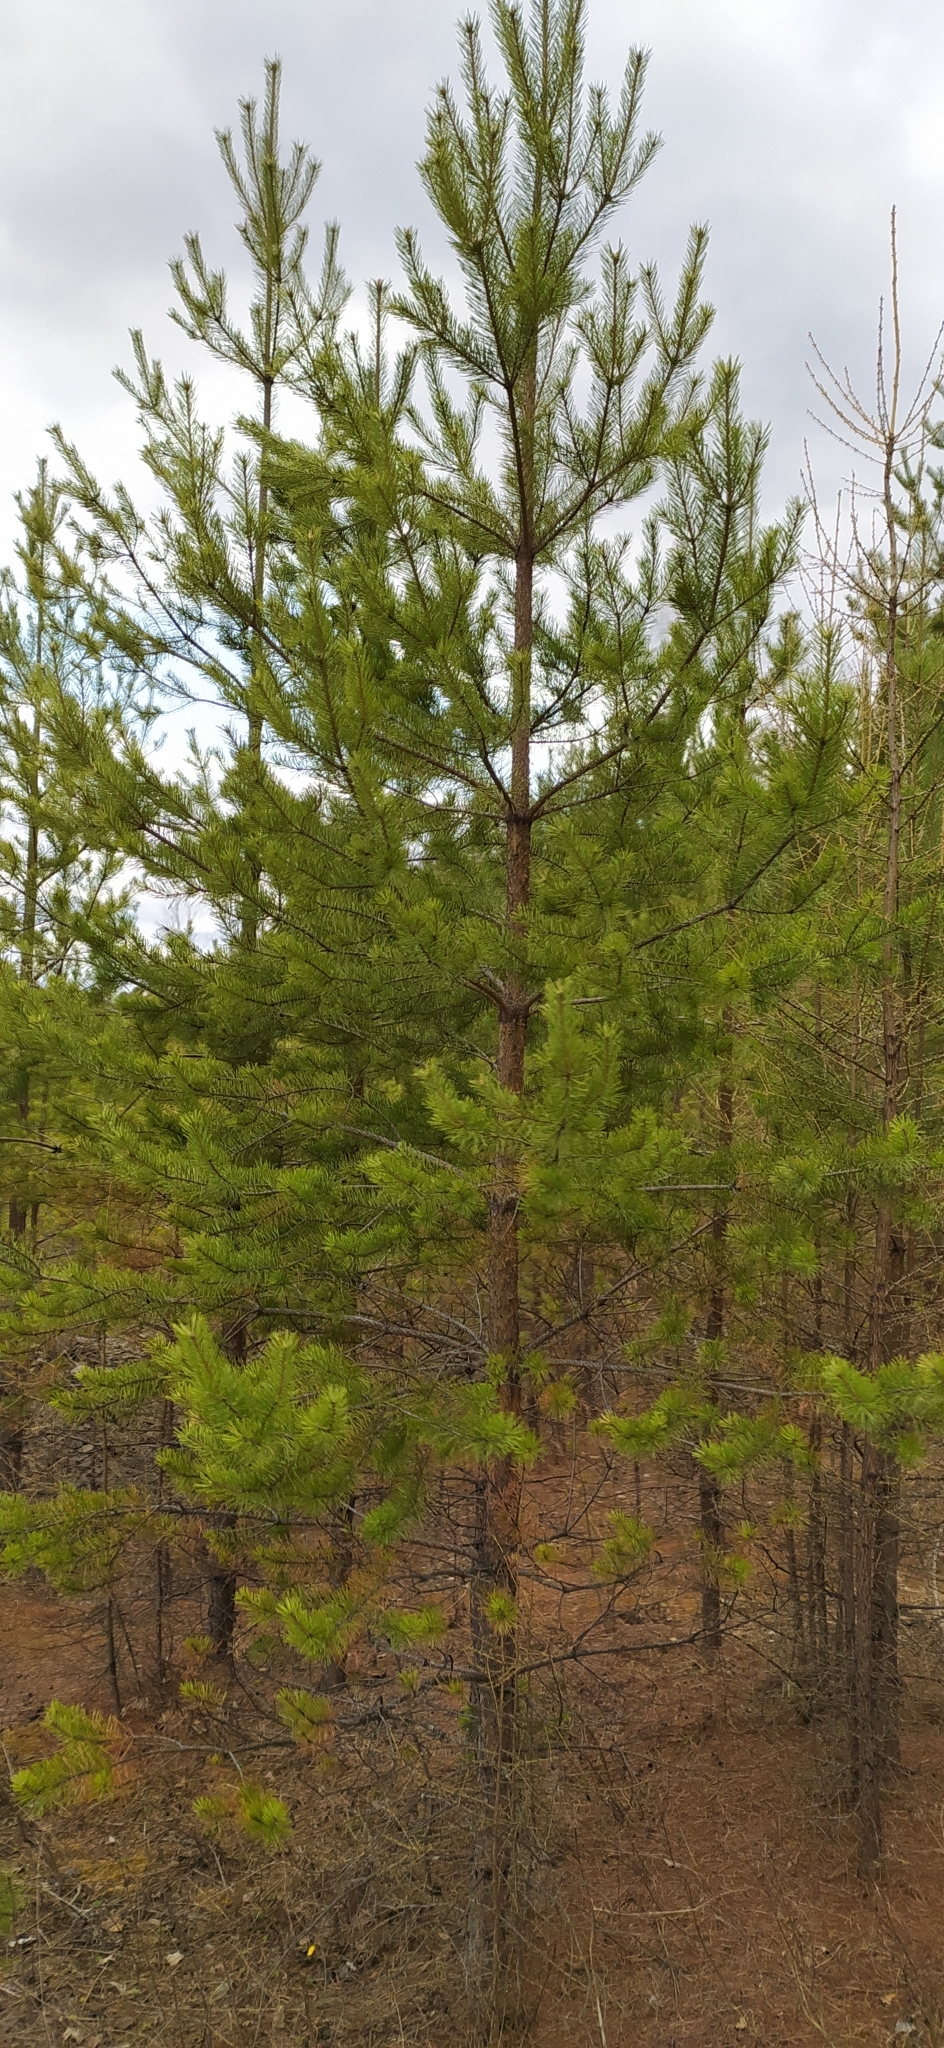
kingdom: Plantae
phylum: Tracheophyta
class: Pinopsida
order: Pinales
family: Pinaceae
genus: Pinus
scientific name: Pinus sylvestris
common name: Scots pine
